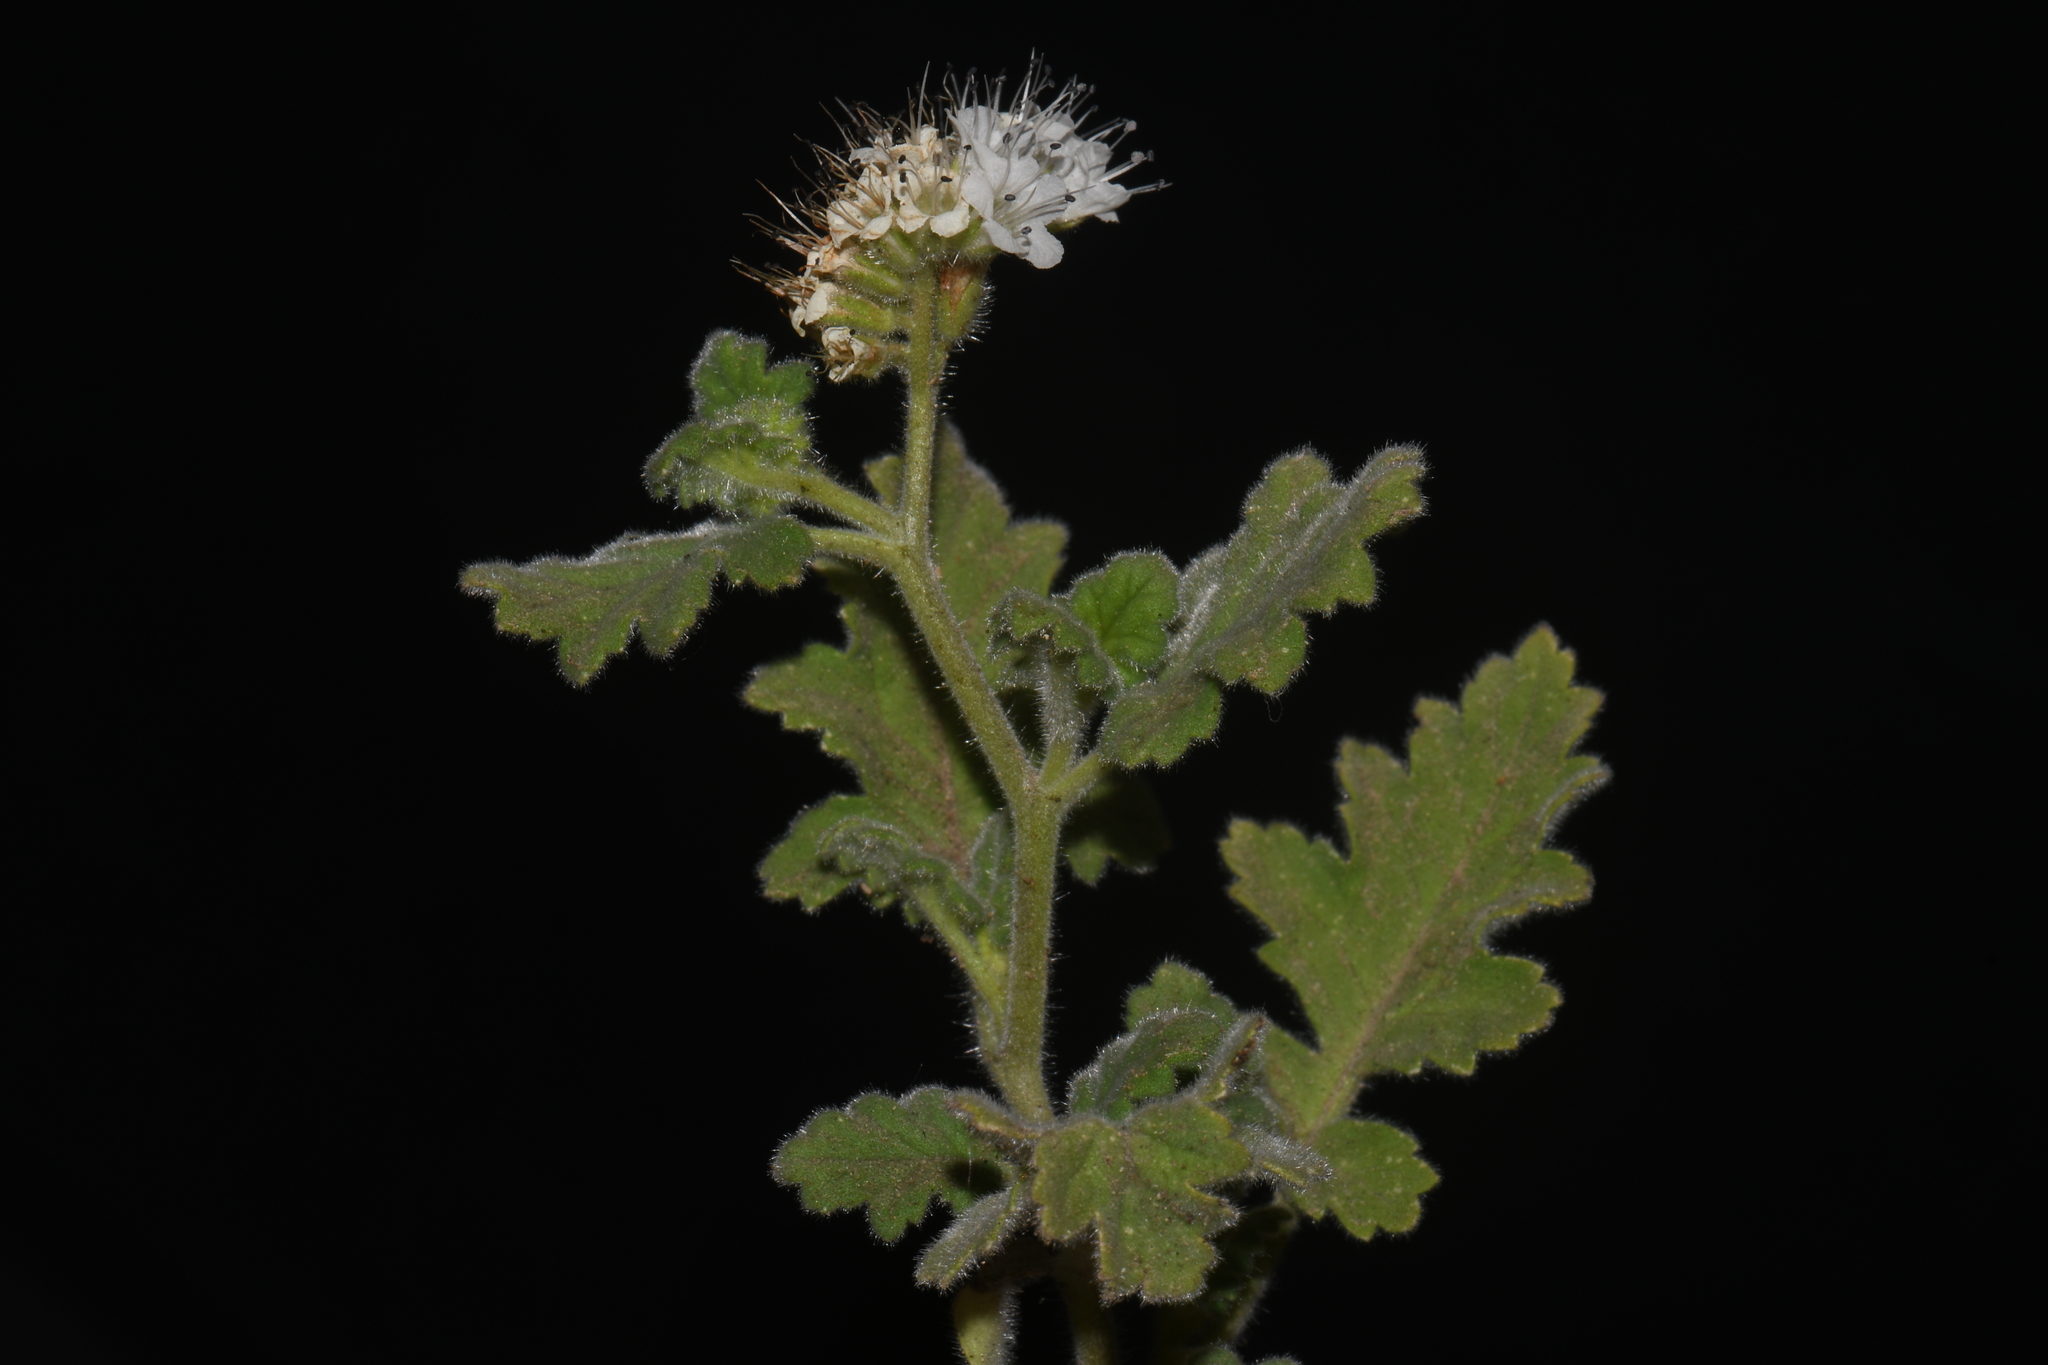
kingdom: Plantae
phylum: Tracheophyta
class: Magnoliopsida
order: Boraginales
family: Hydrophyllaceae
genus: Phacelia
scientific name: Phacelia rupestris
